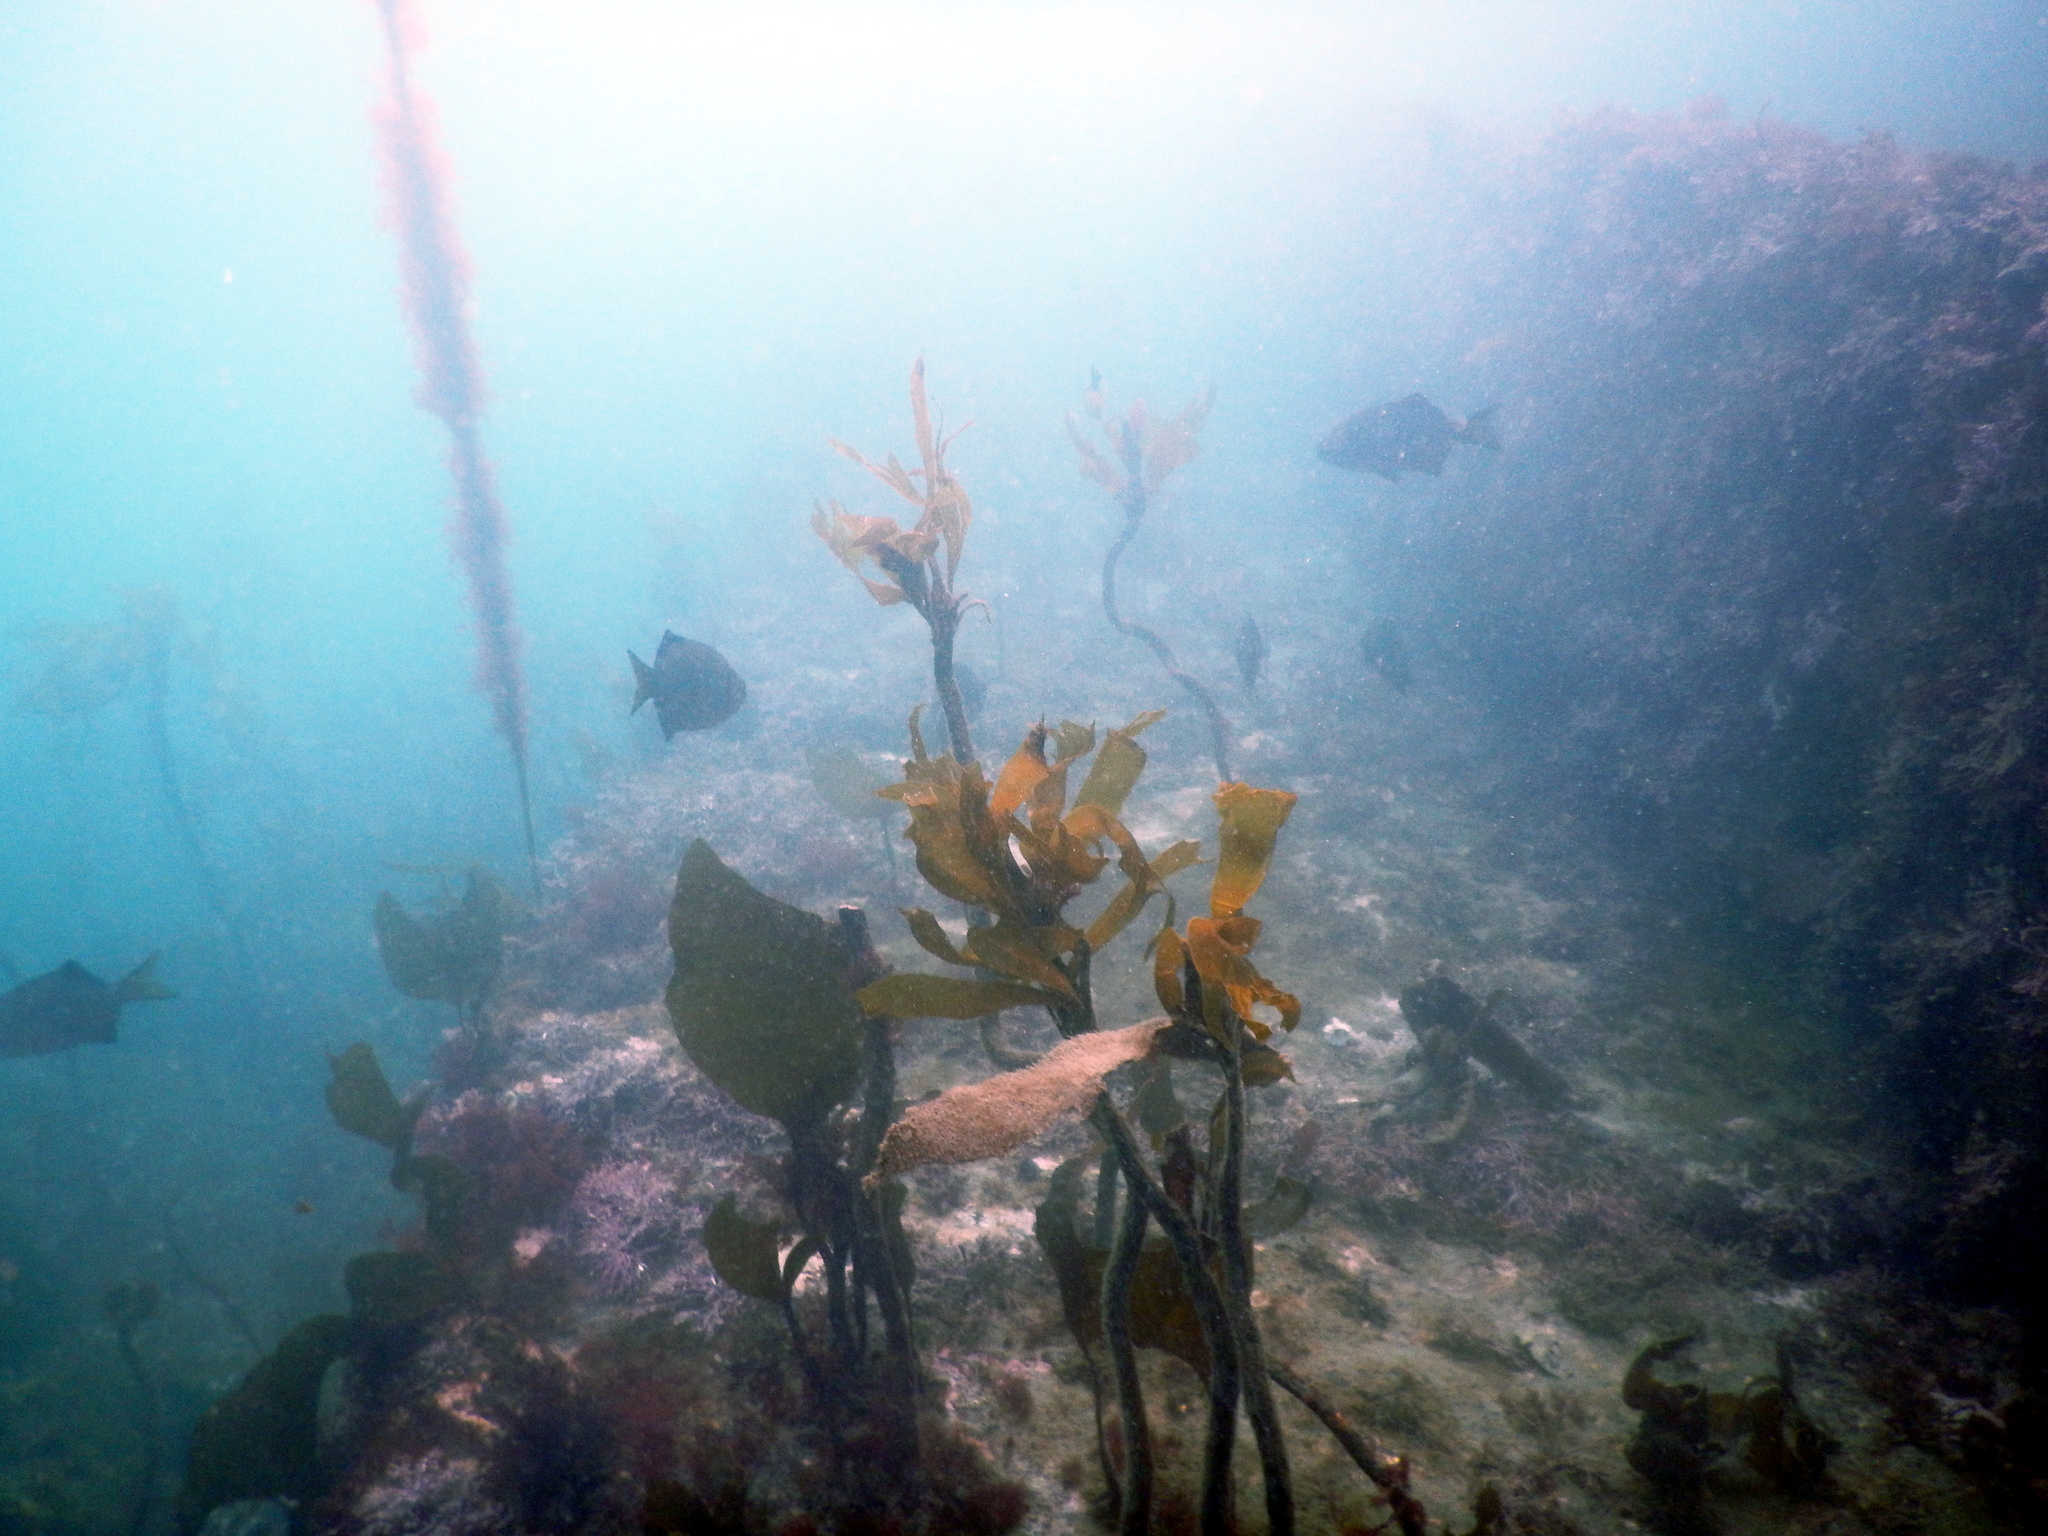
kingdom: Animalia
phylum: Chordata
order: Perciformes
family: Embiotocidae
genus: Embiotoca
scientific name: Embiotoca lateralis
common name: Striped surfperch
